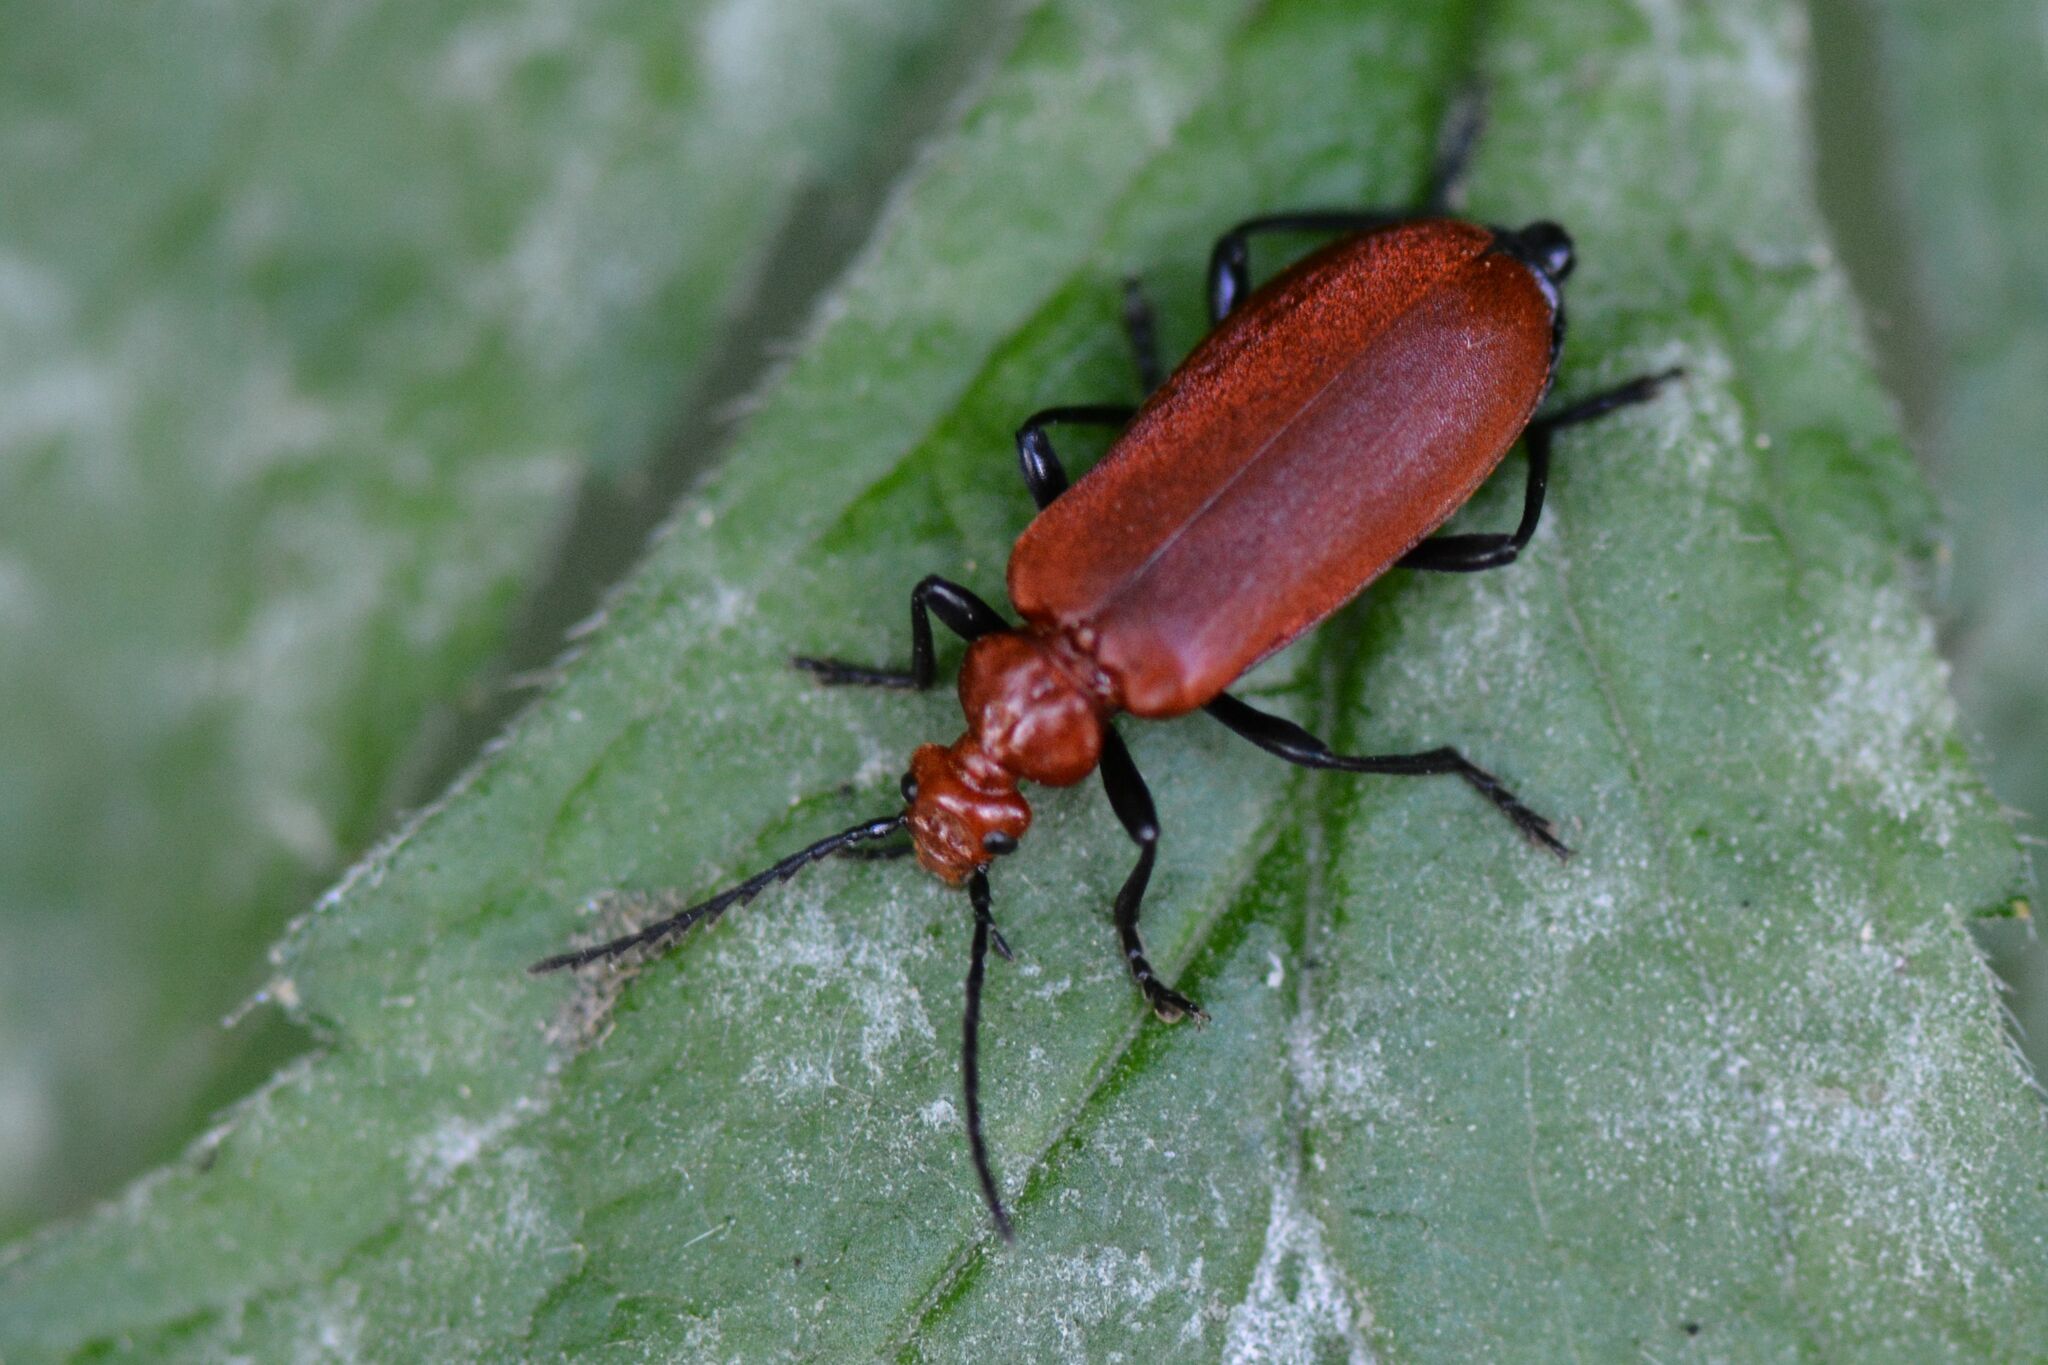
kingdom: Animalia
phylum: Arthropoda
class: Insecta
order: Coleoptera
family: Pyrochroidae
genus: Pyrochroa
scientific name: Pyrochroa serraticornis
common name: Red-headed cardinal beetle
